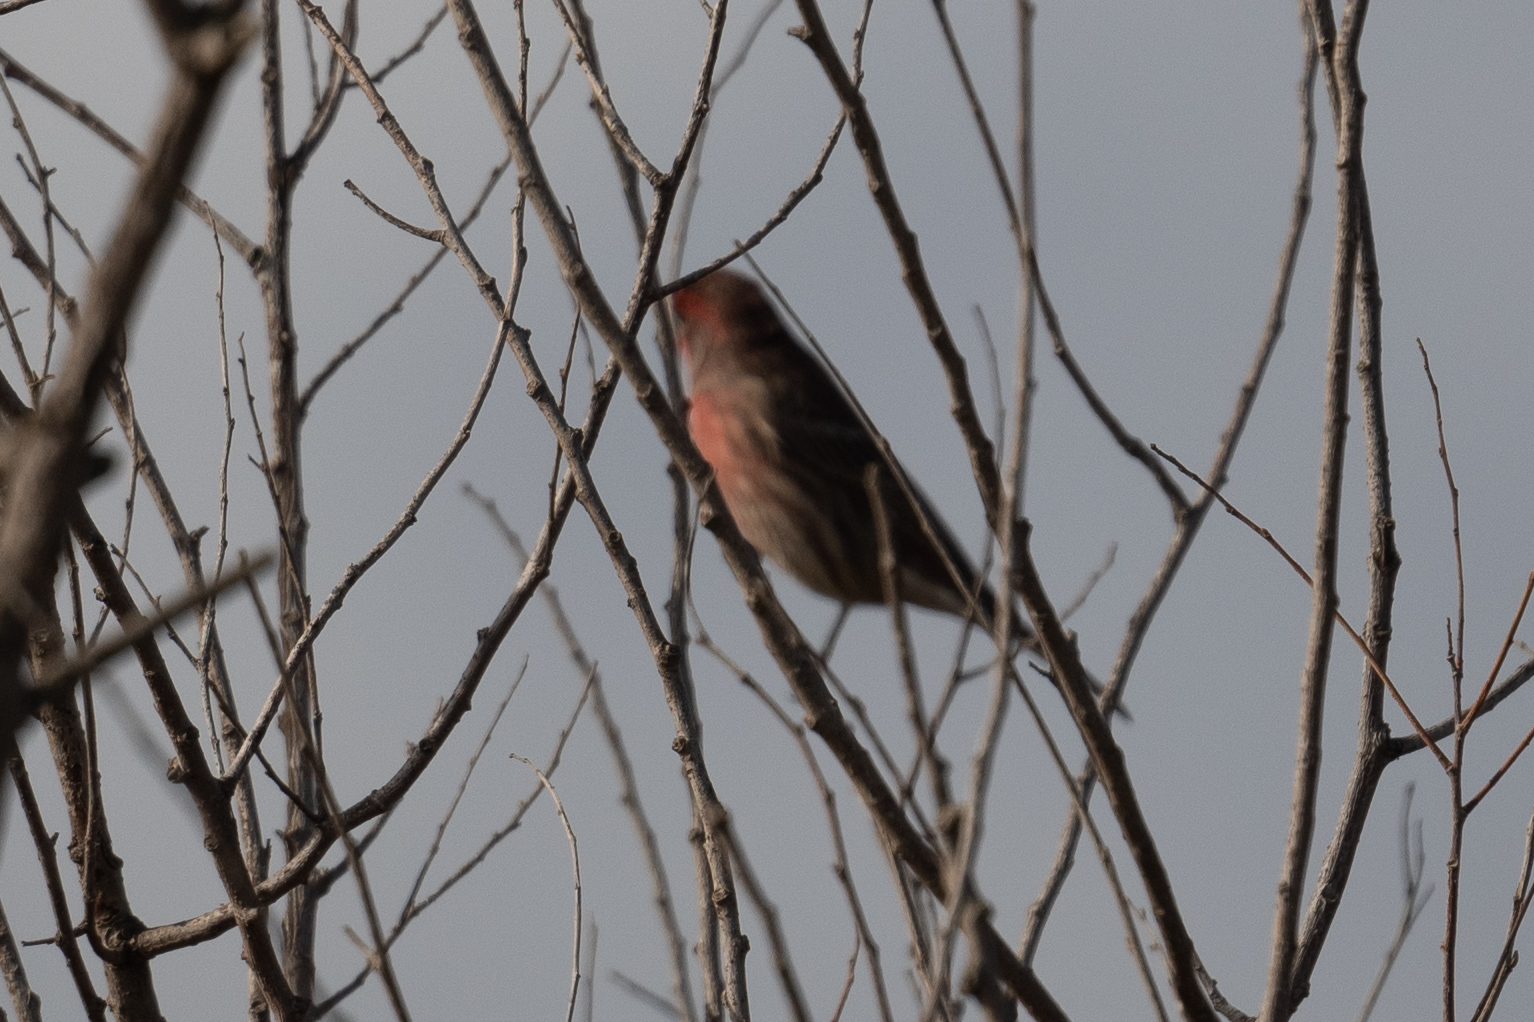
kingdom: Animalia
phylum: Chordata
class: Aves
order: Passeriformes
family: Fringillidae
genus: Haemorhous
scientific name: Haemorhous mexicanus
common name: House finch
